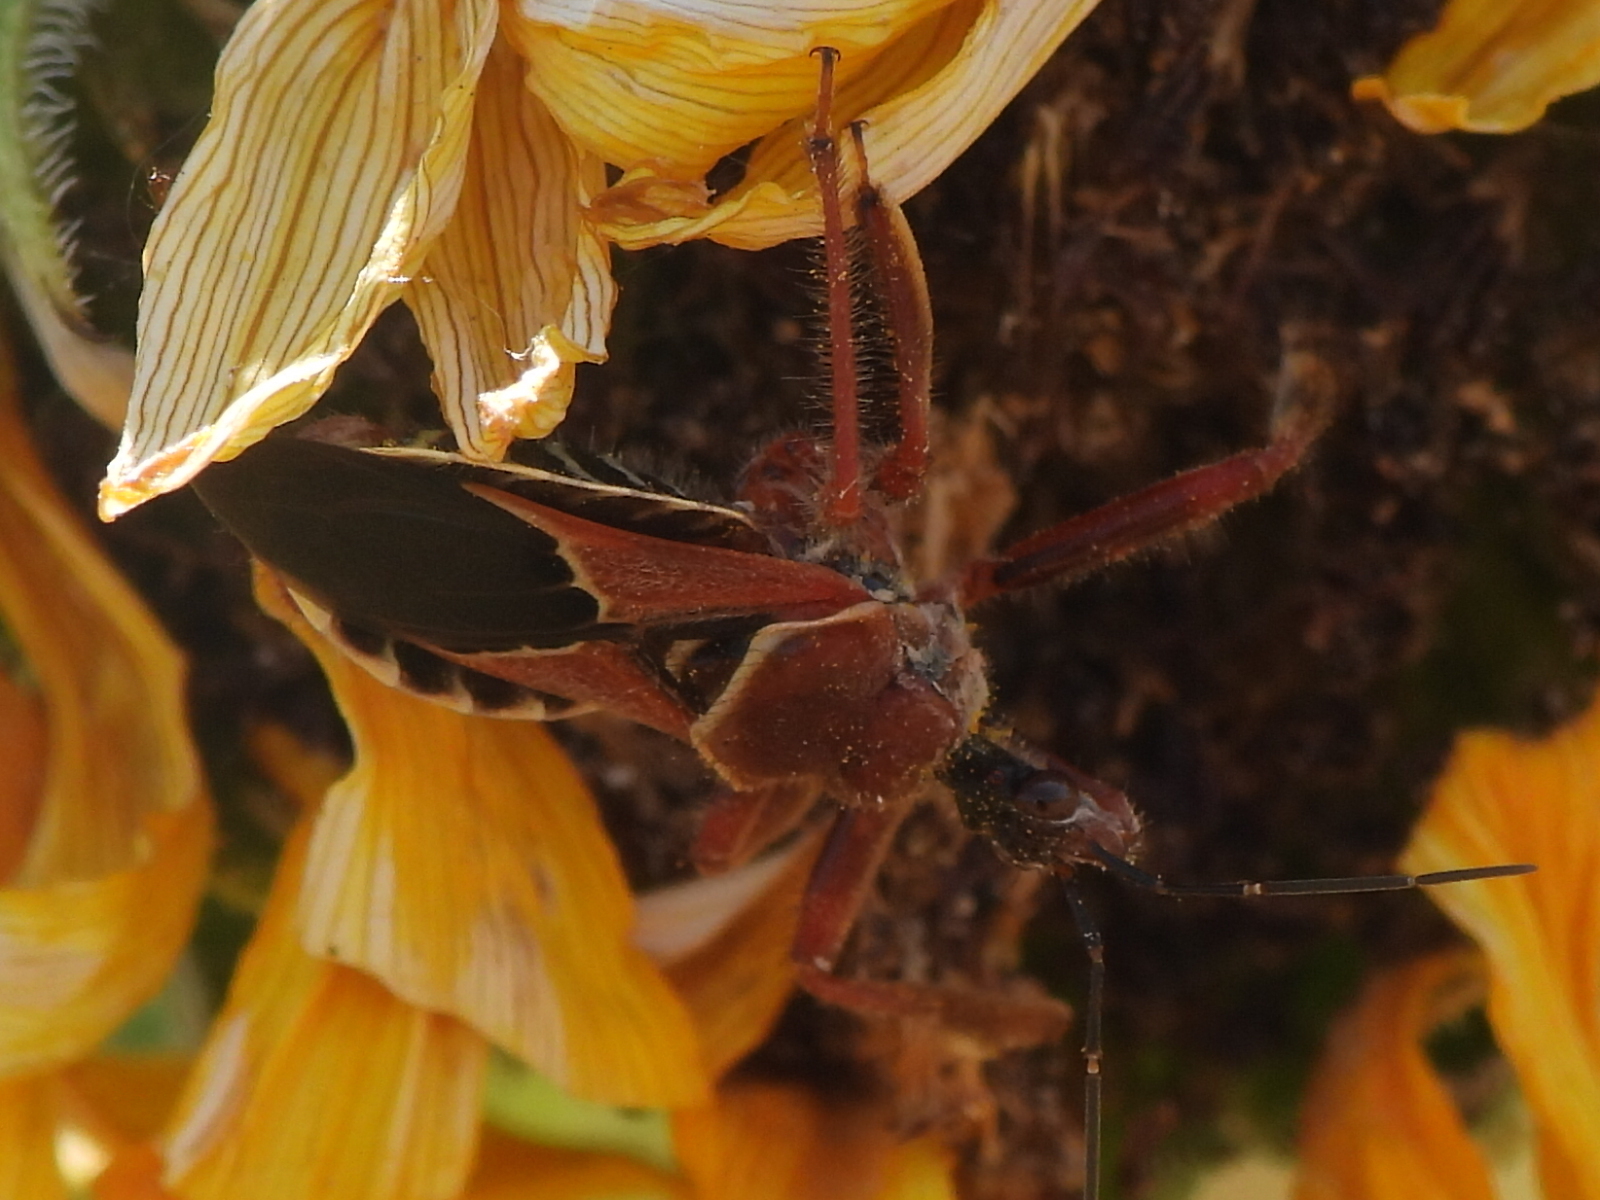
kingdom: Animalia
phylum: Arthropoda
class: Insecta
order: Hemiptera
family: Reduviidae
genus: Apiomerus
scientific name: Apiomerus spissipes
